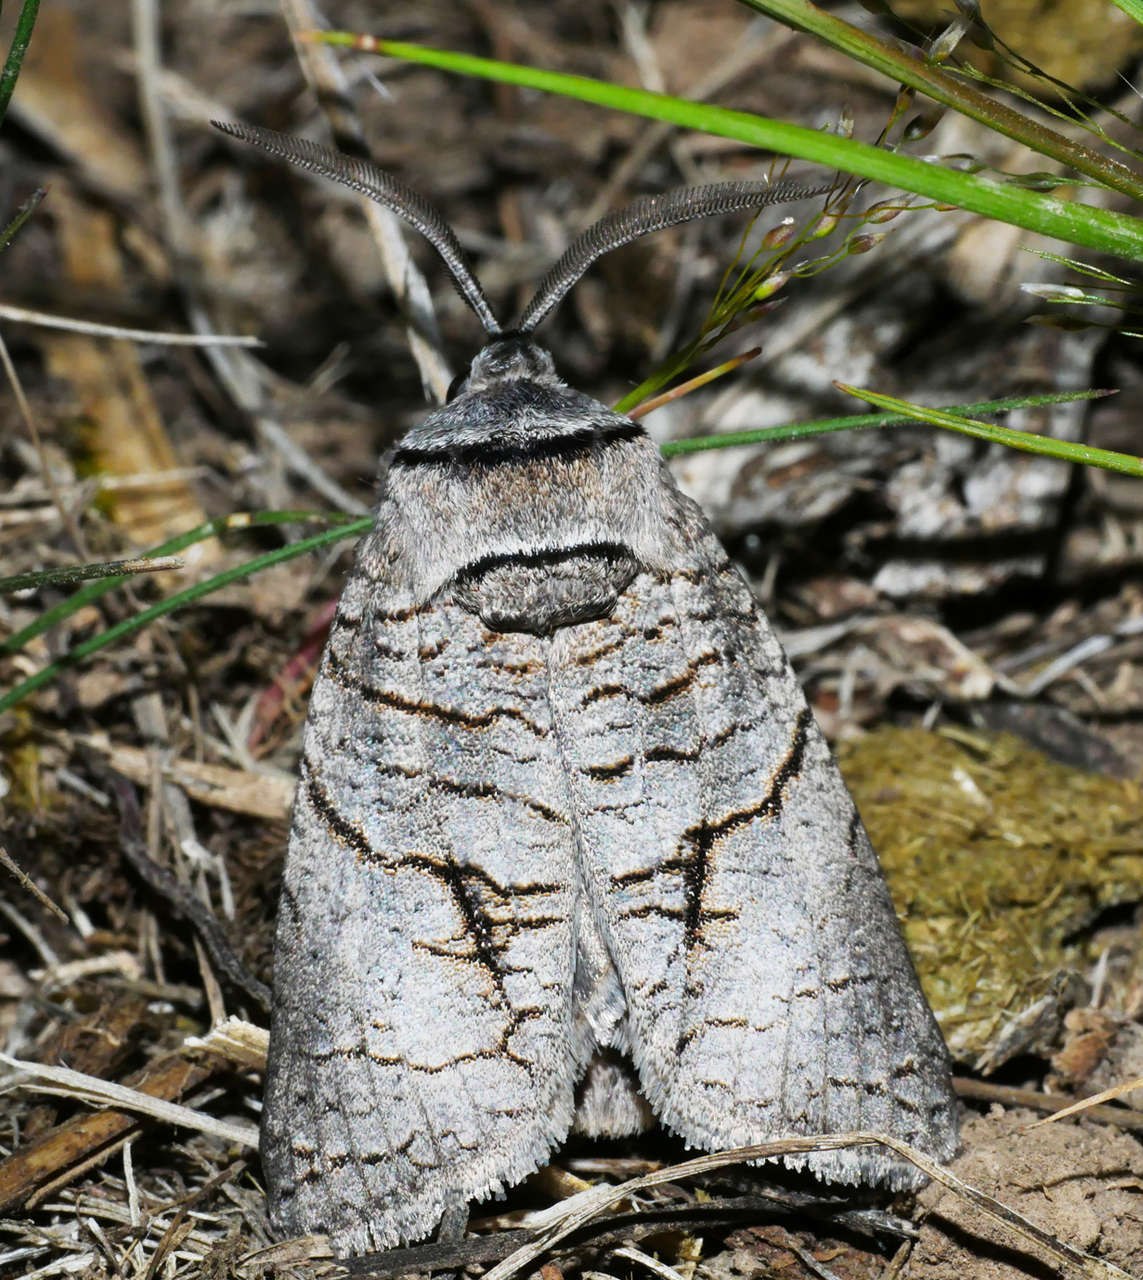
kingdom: Animalia
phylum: Arthropoda
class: Insecta
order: Lepidoptera
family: Cossidae
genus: Culama
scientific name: Culama anthracica
